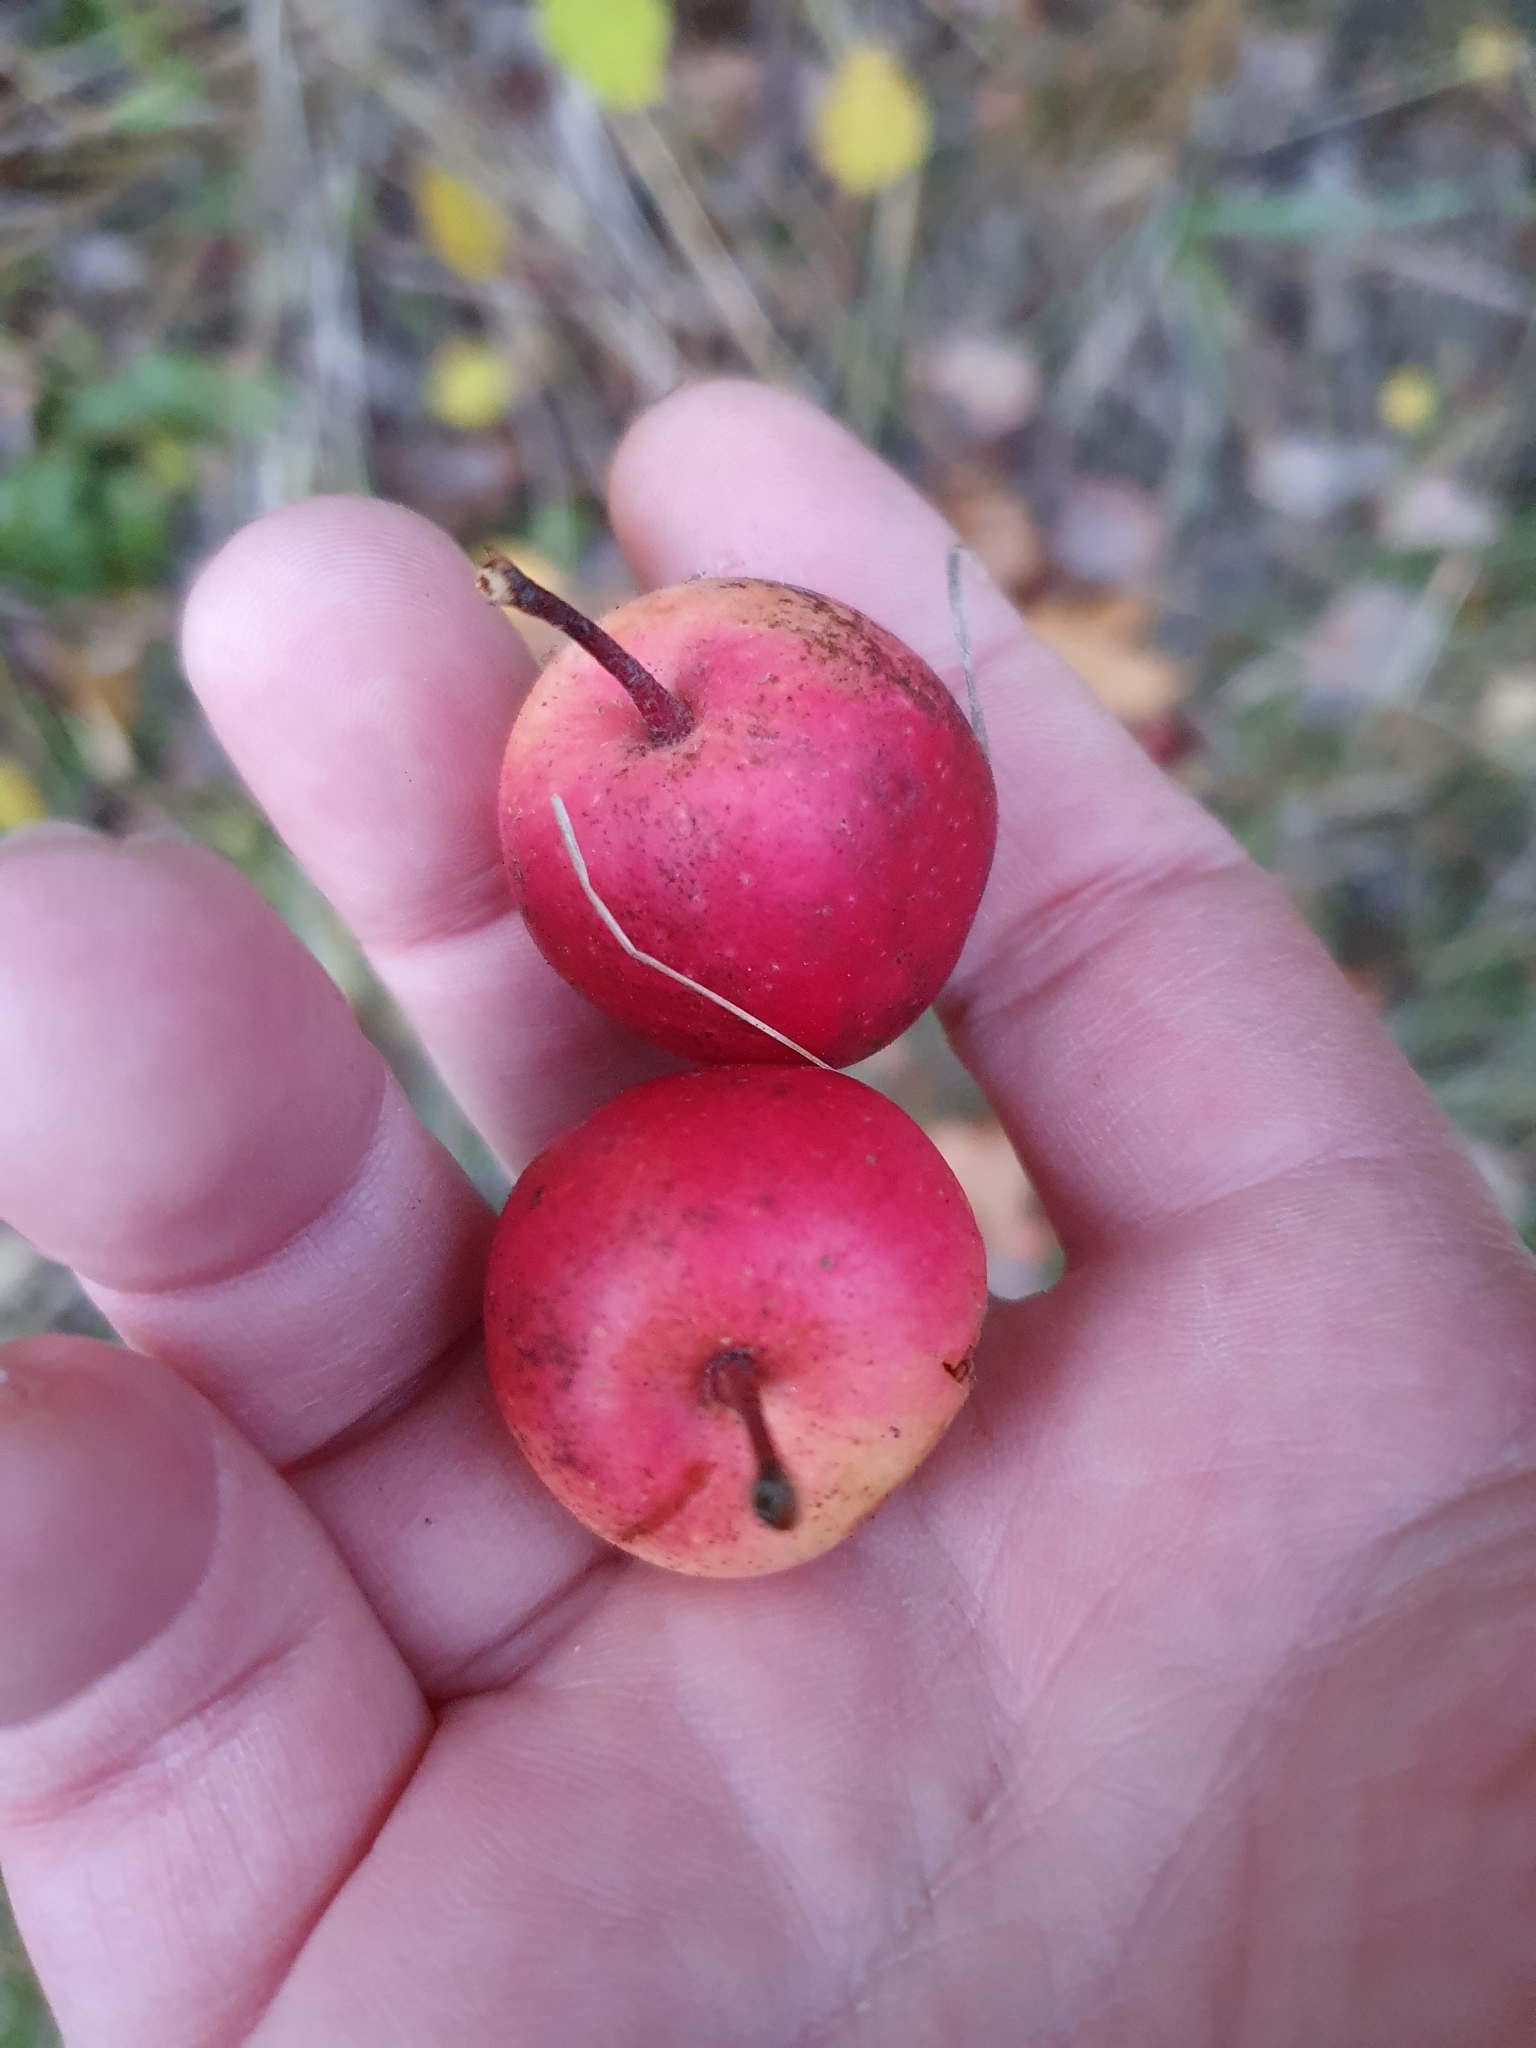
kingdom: Plantae
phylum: Tracheophyta
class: Magnoliopsida
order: Rosales
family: Rosaceae
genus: Malus
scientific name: Malus sylvestris
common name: Crab apple
